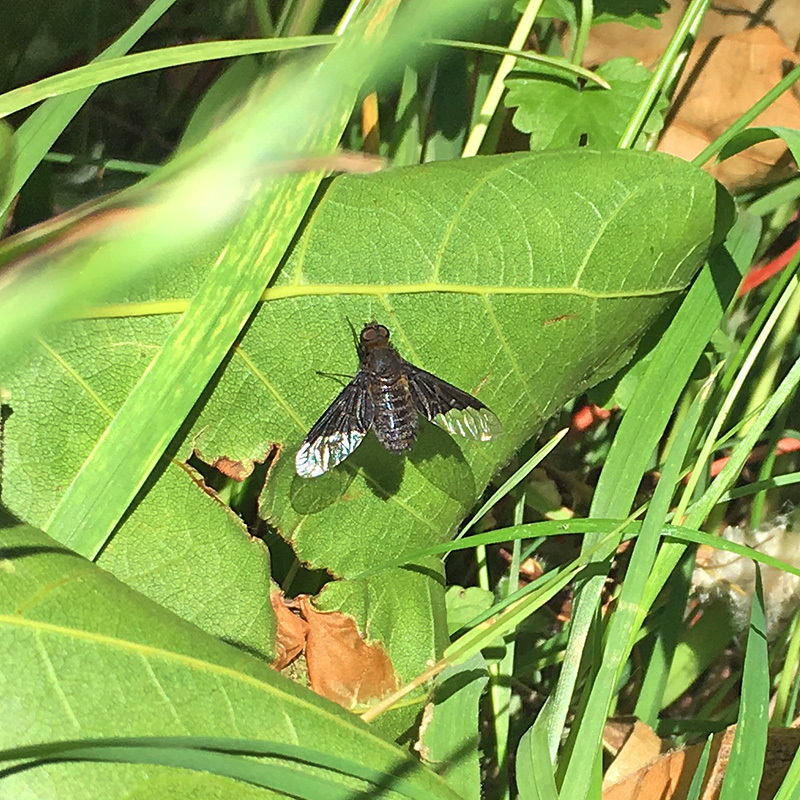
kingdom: Animalia
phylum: Arthropoda
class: Insecta
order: Diptera
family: Bombyliidae
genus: Hemipenthes
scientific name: Hemipenthes morio
